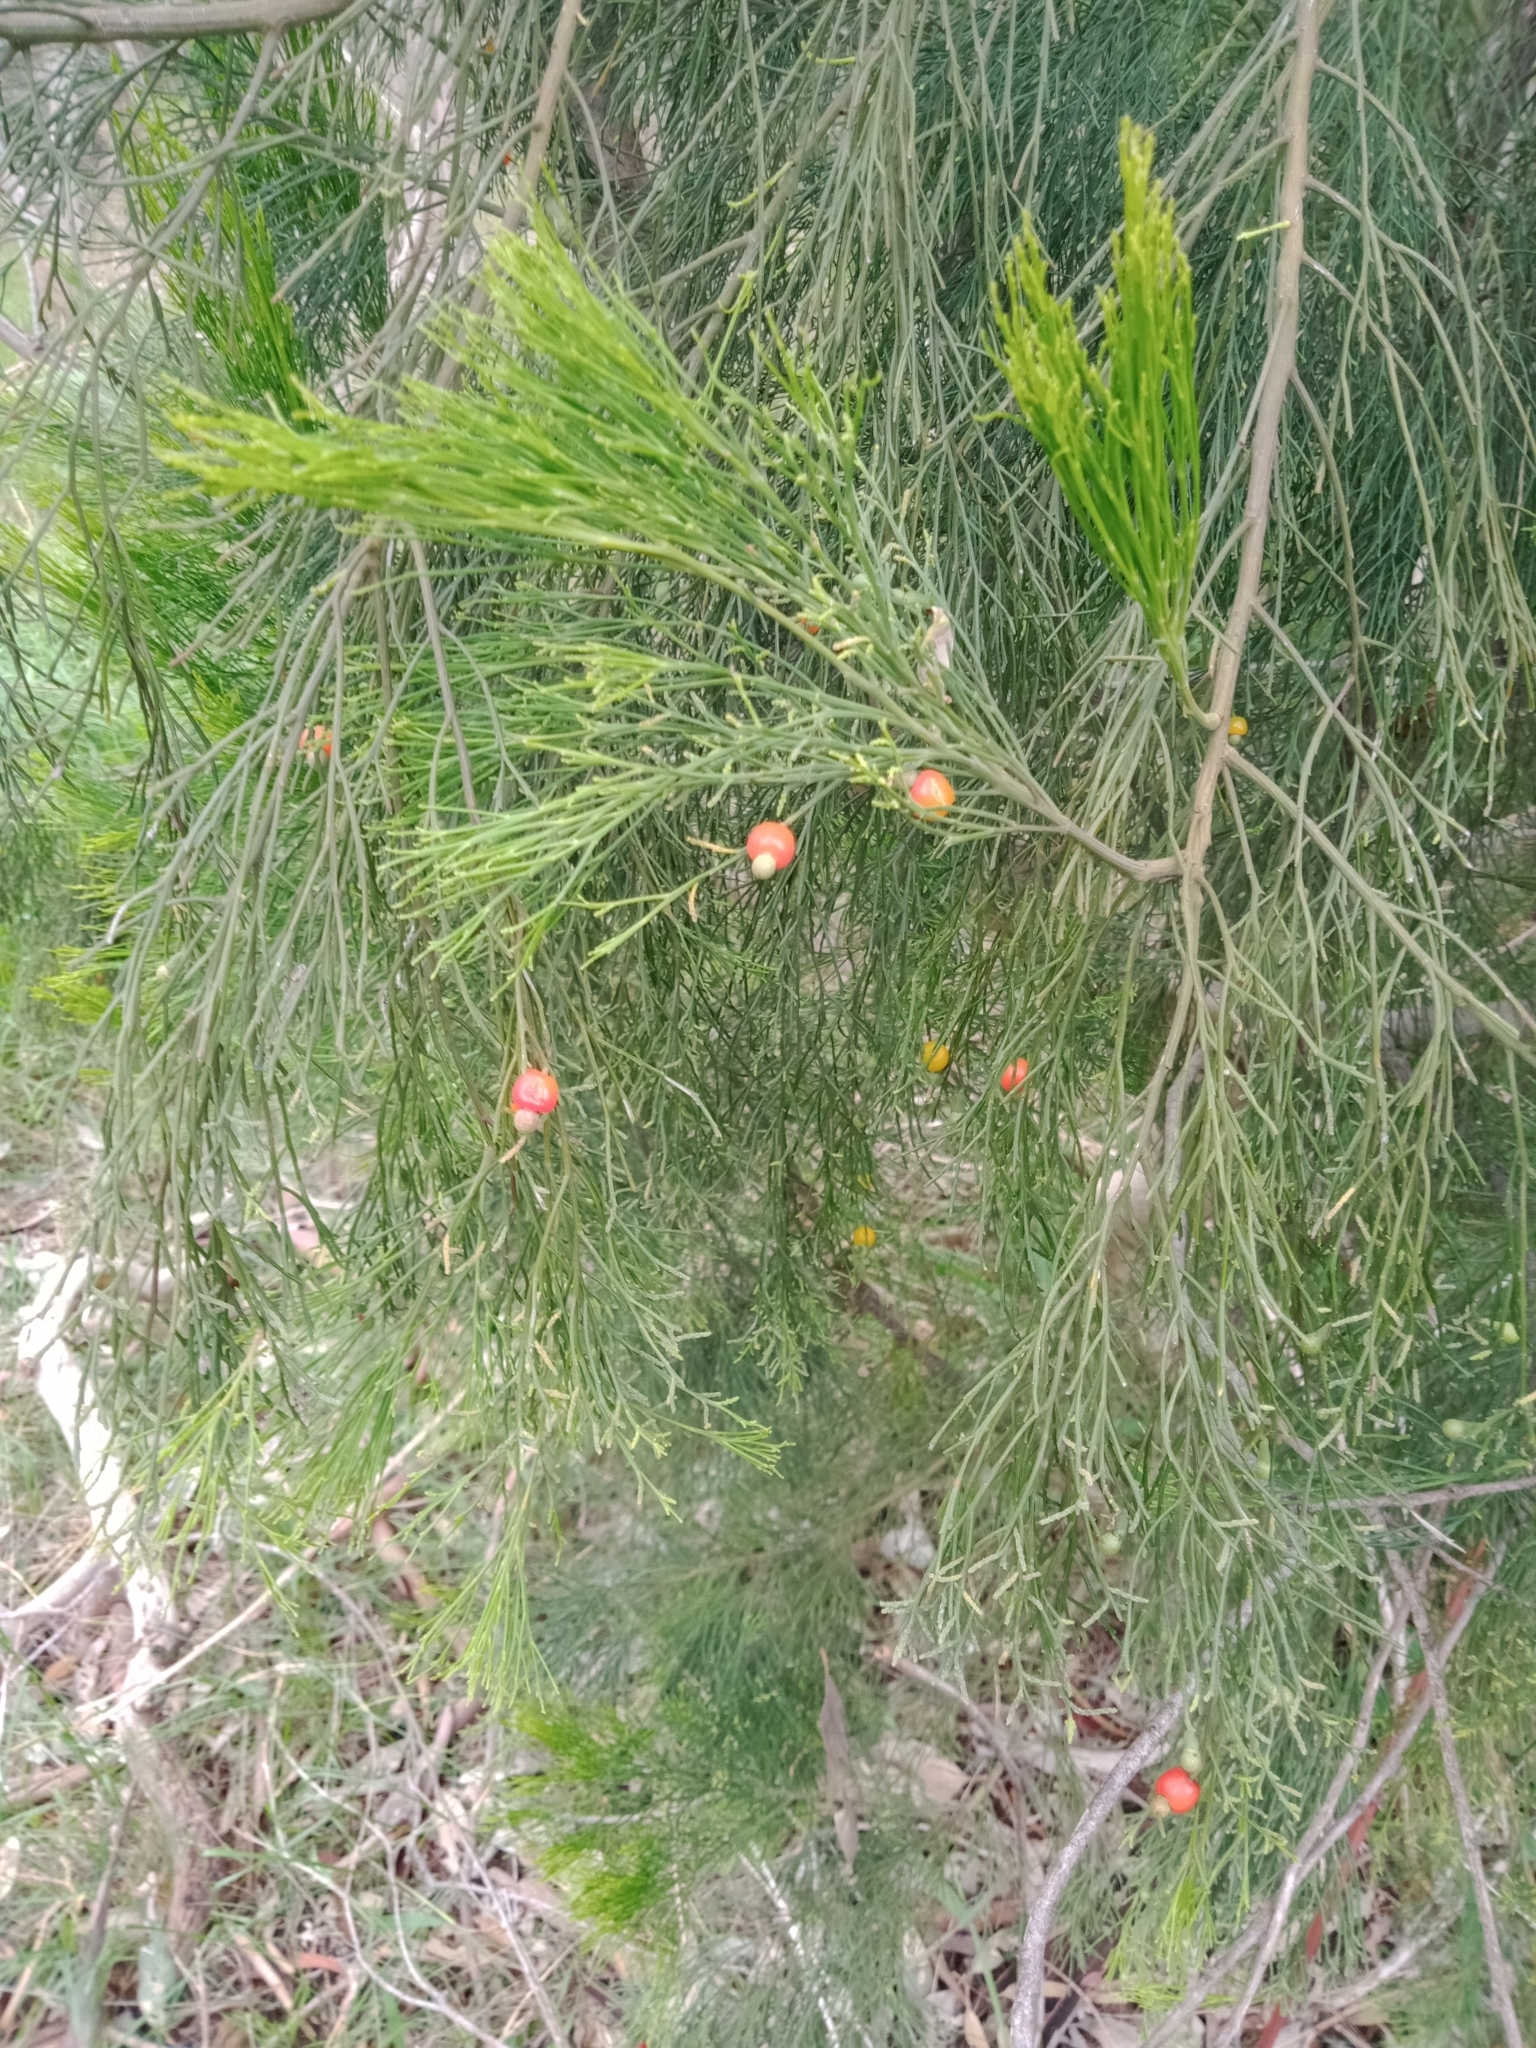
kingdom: Plantae
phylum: Tracheophyta
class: Magnoliopsida
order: Santalales
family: Santalaceae
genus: Exocarpos
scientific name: Exocarpos cupressiformis
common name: Cherry ballart
